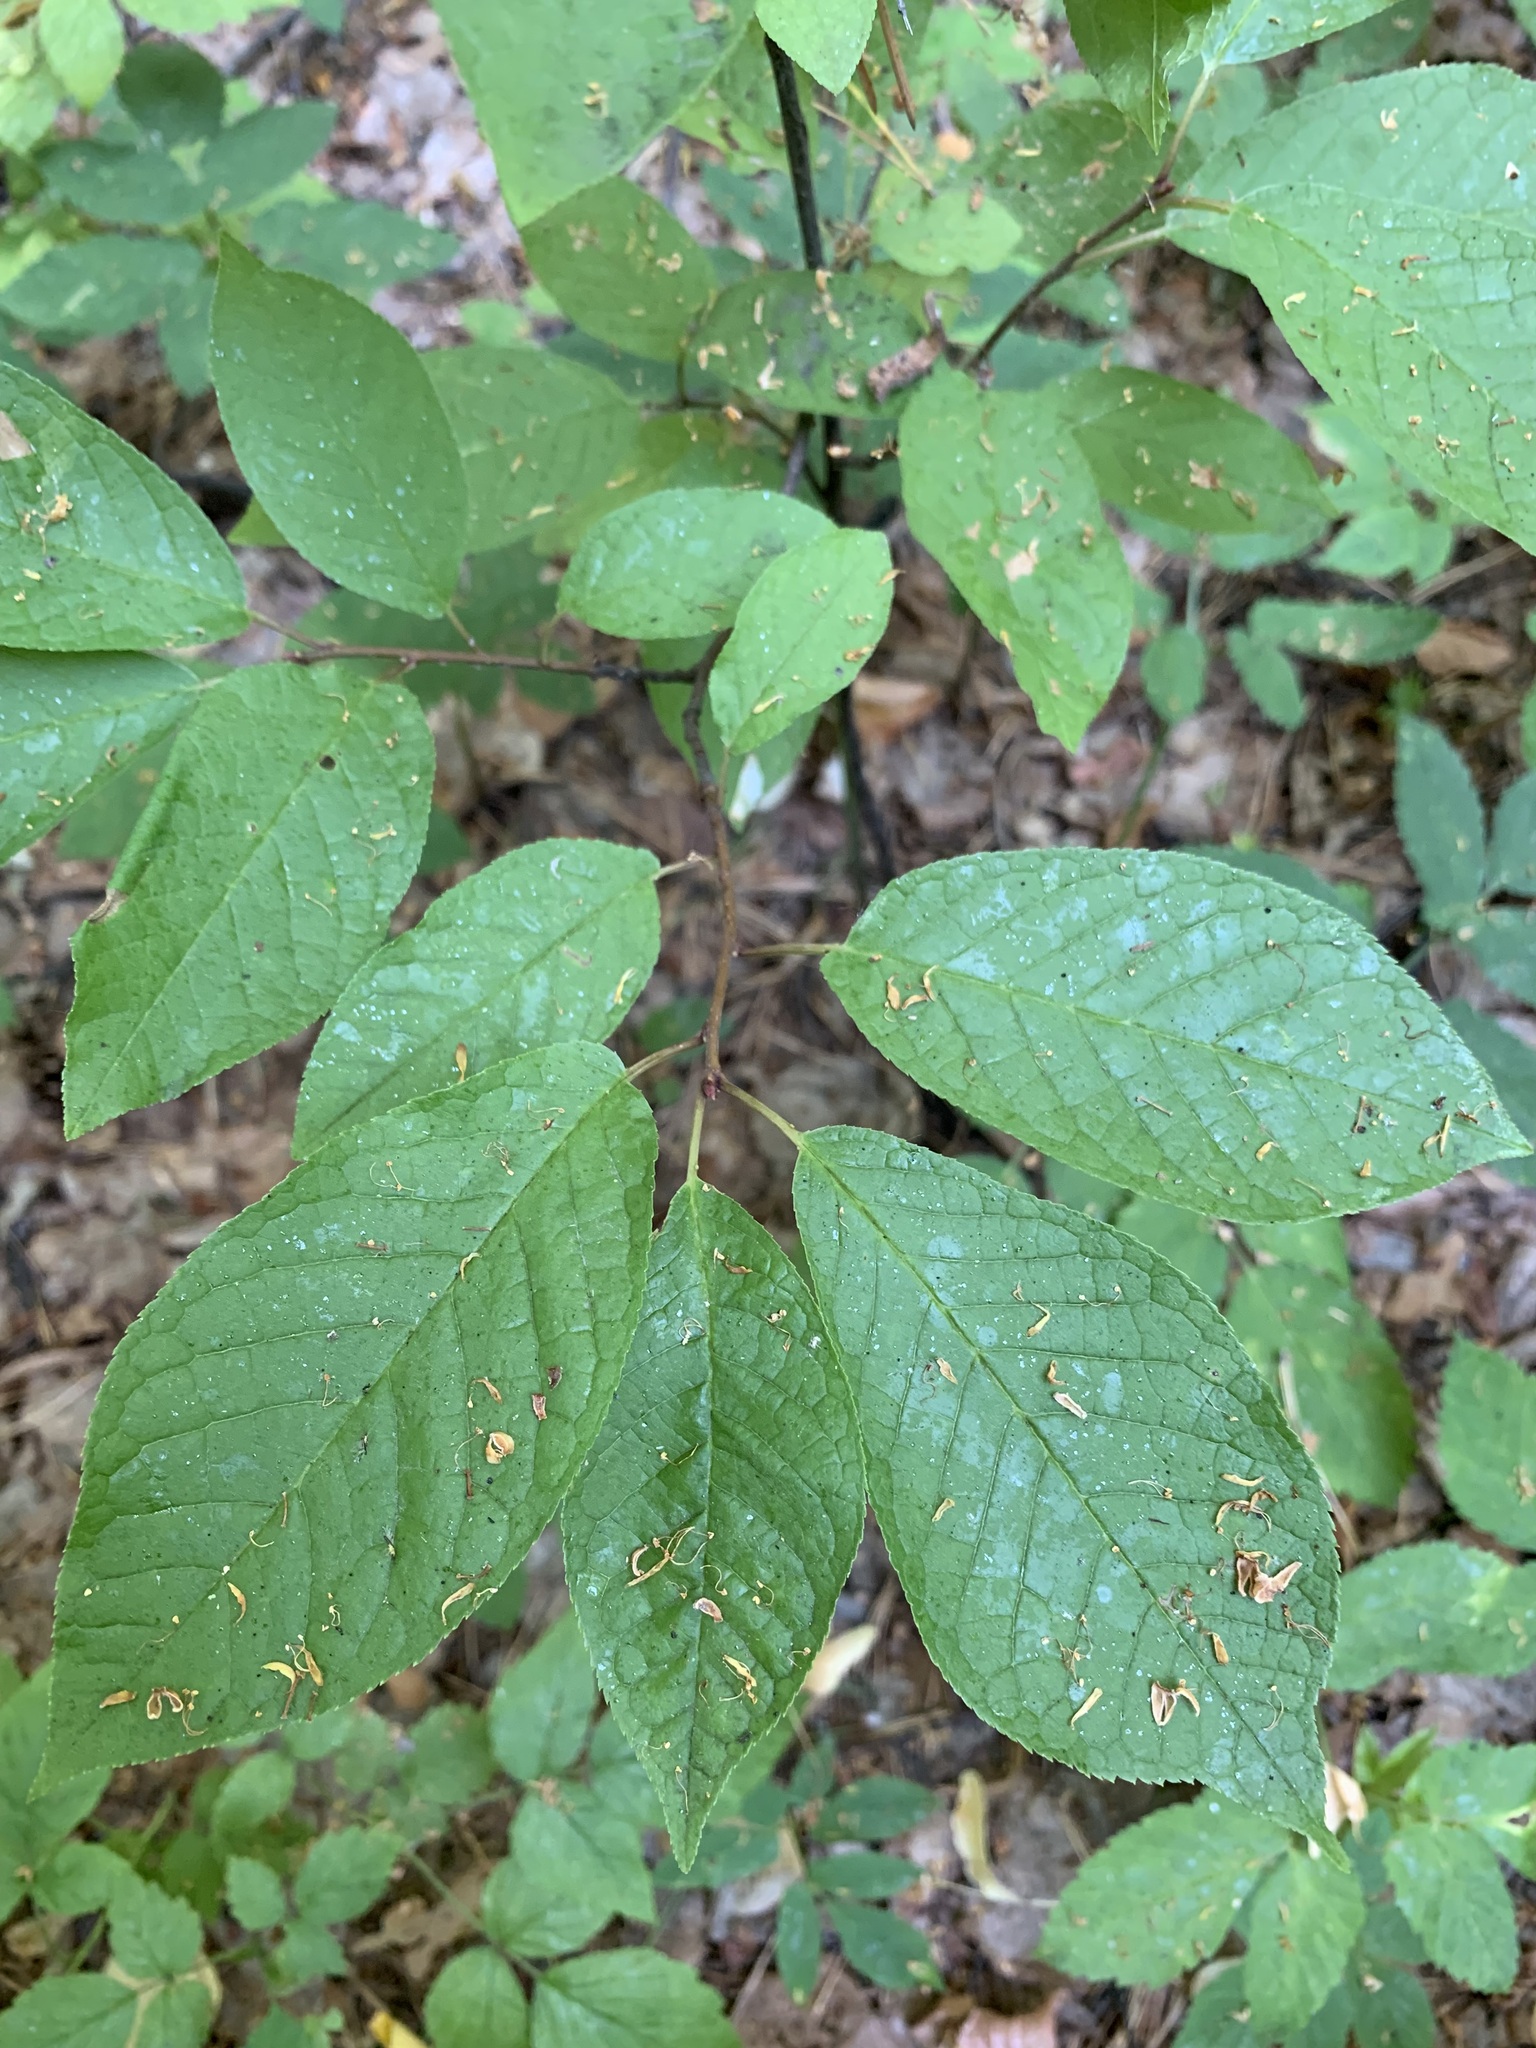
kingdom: Plantae
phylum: Tracheophyta
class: Magnoliopsida
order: Rosales
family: Rosaceae
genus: Prunus
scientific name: Prunus padus
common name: Bird cherry
